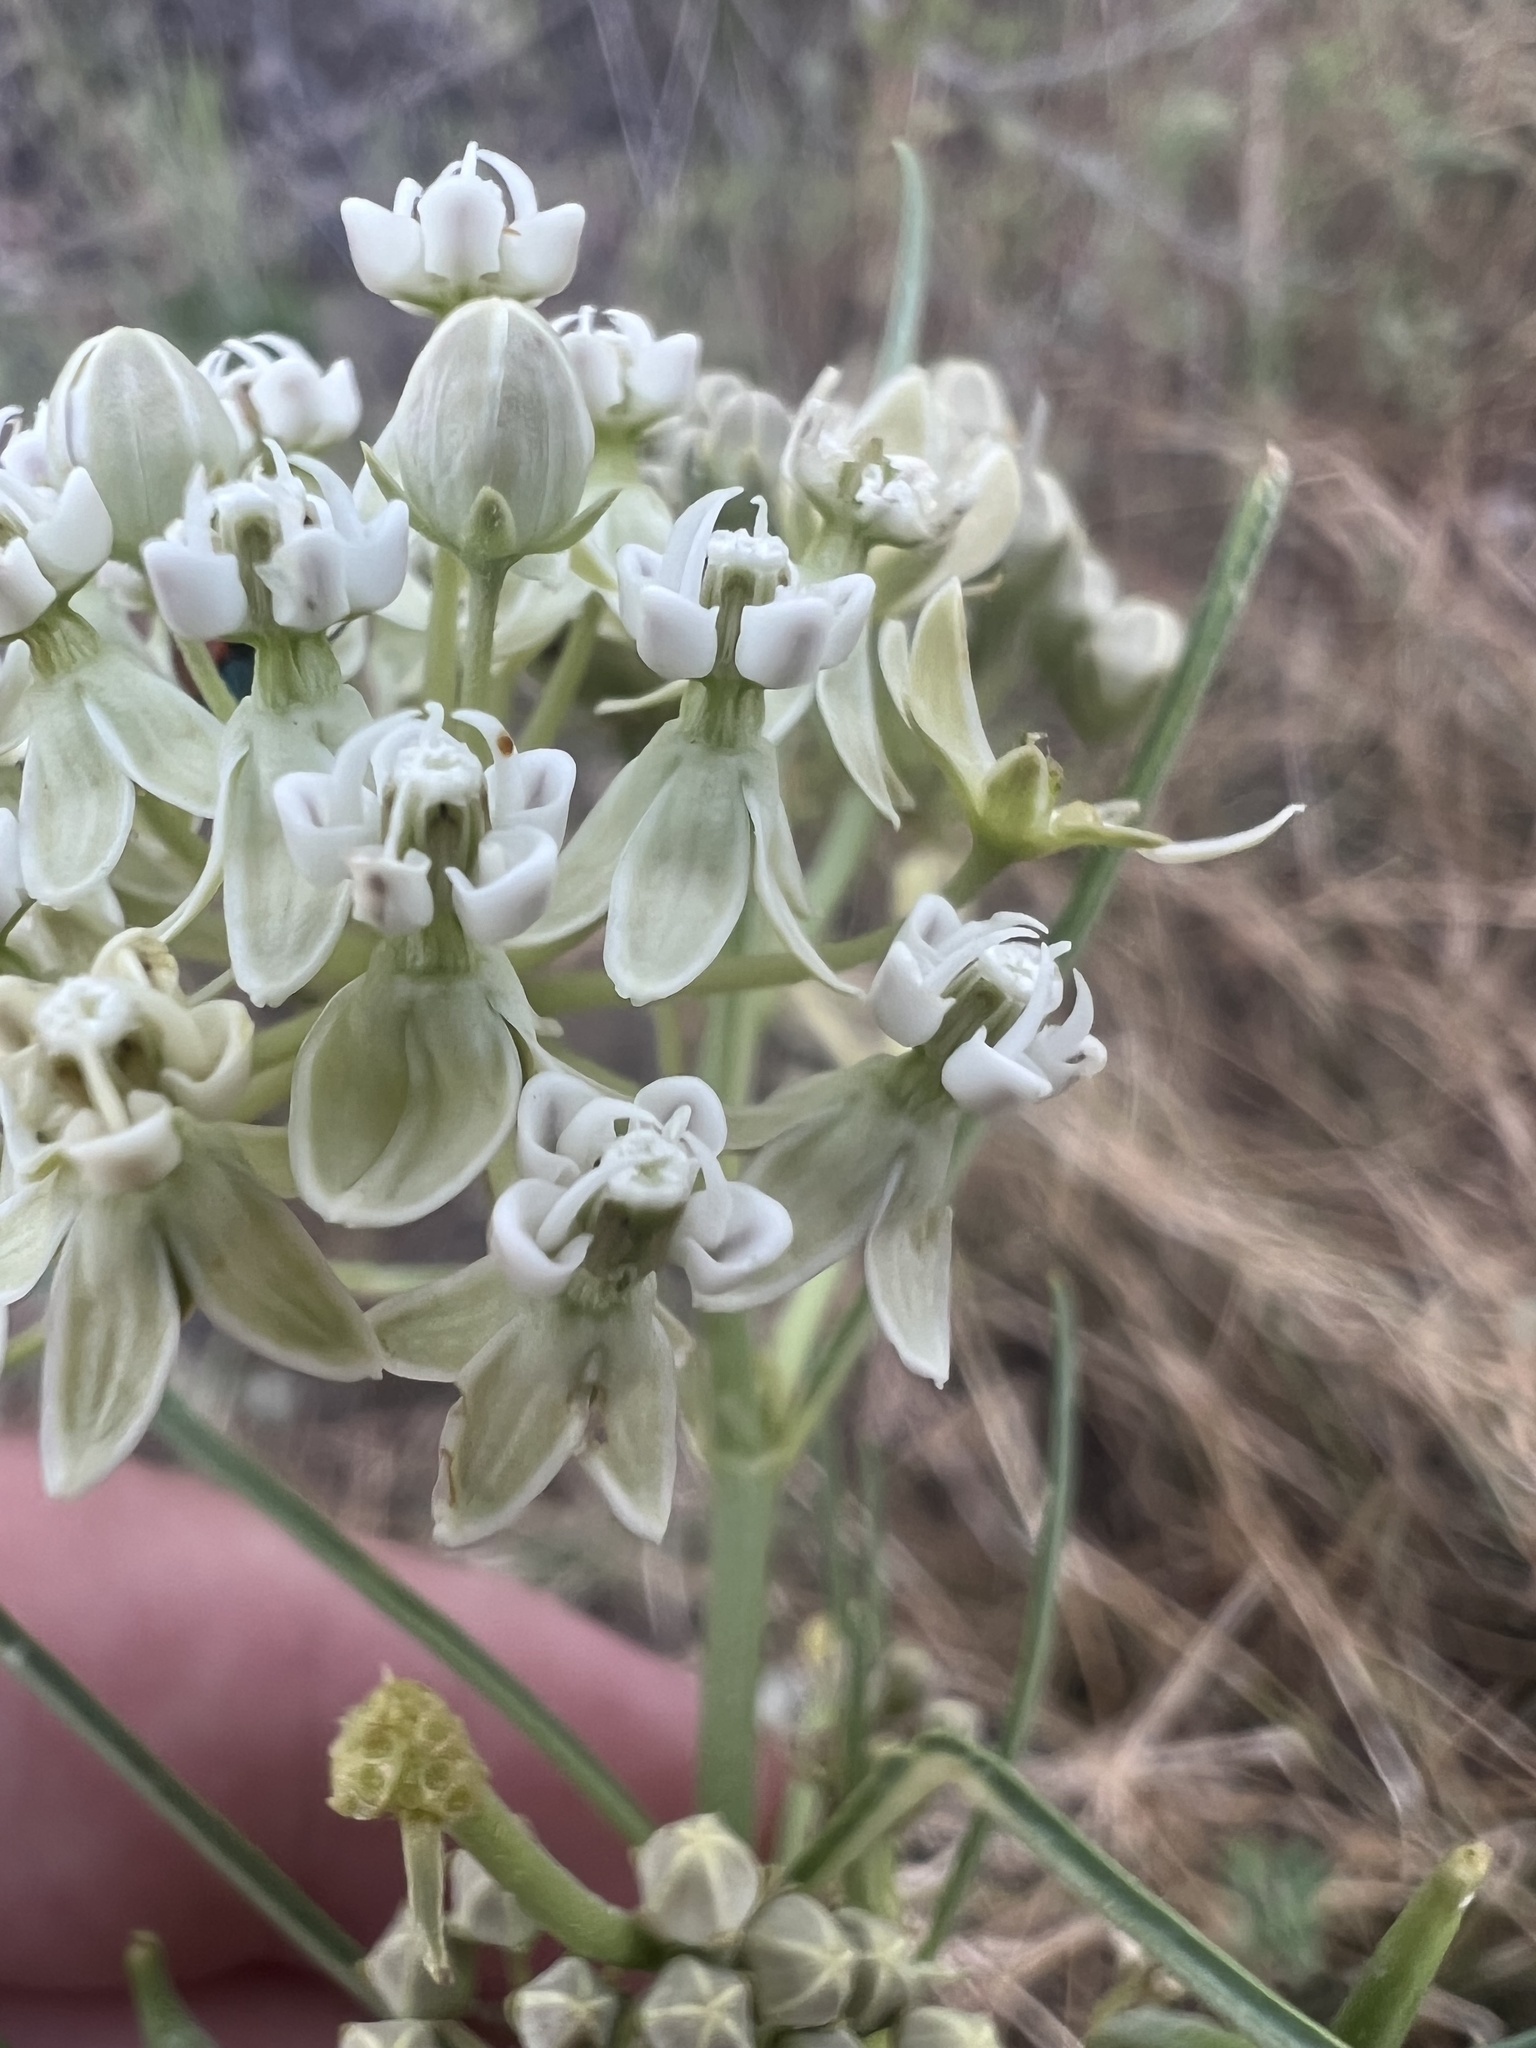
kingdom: Plantae
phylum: Tracheophyta
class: Magnoliopsida
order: Gentianales
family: Apocynaceae
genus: Asclepias
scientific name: Asclepias subverticillata
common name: Horsetail milkweed
